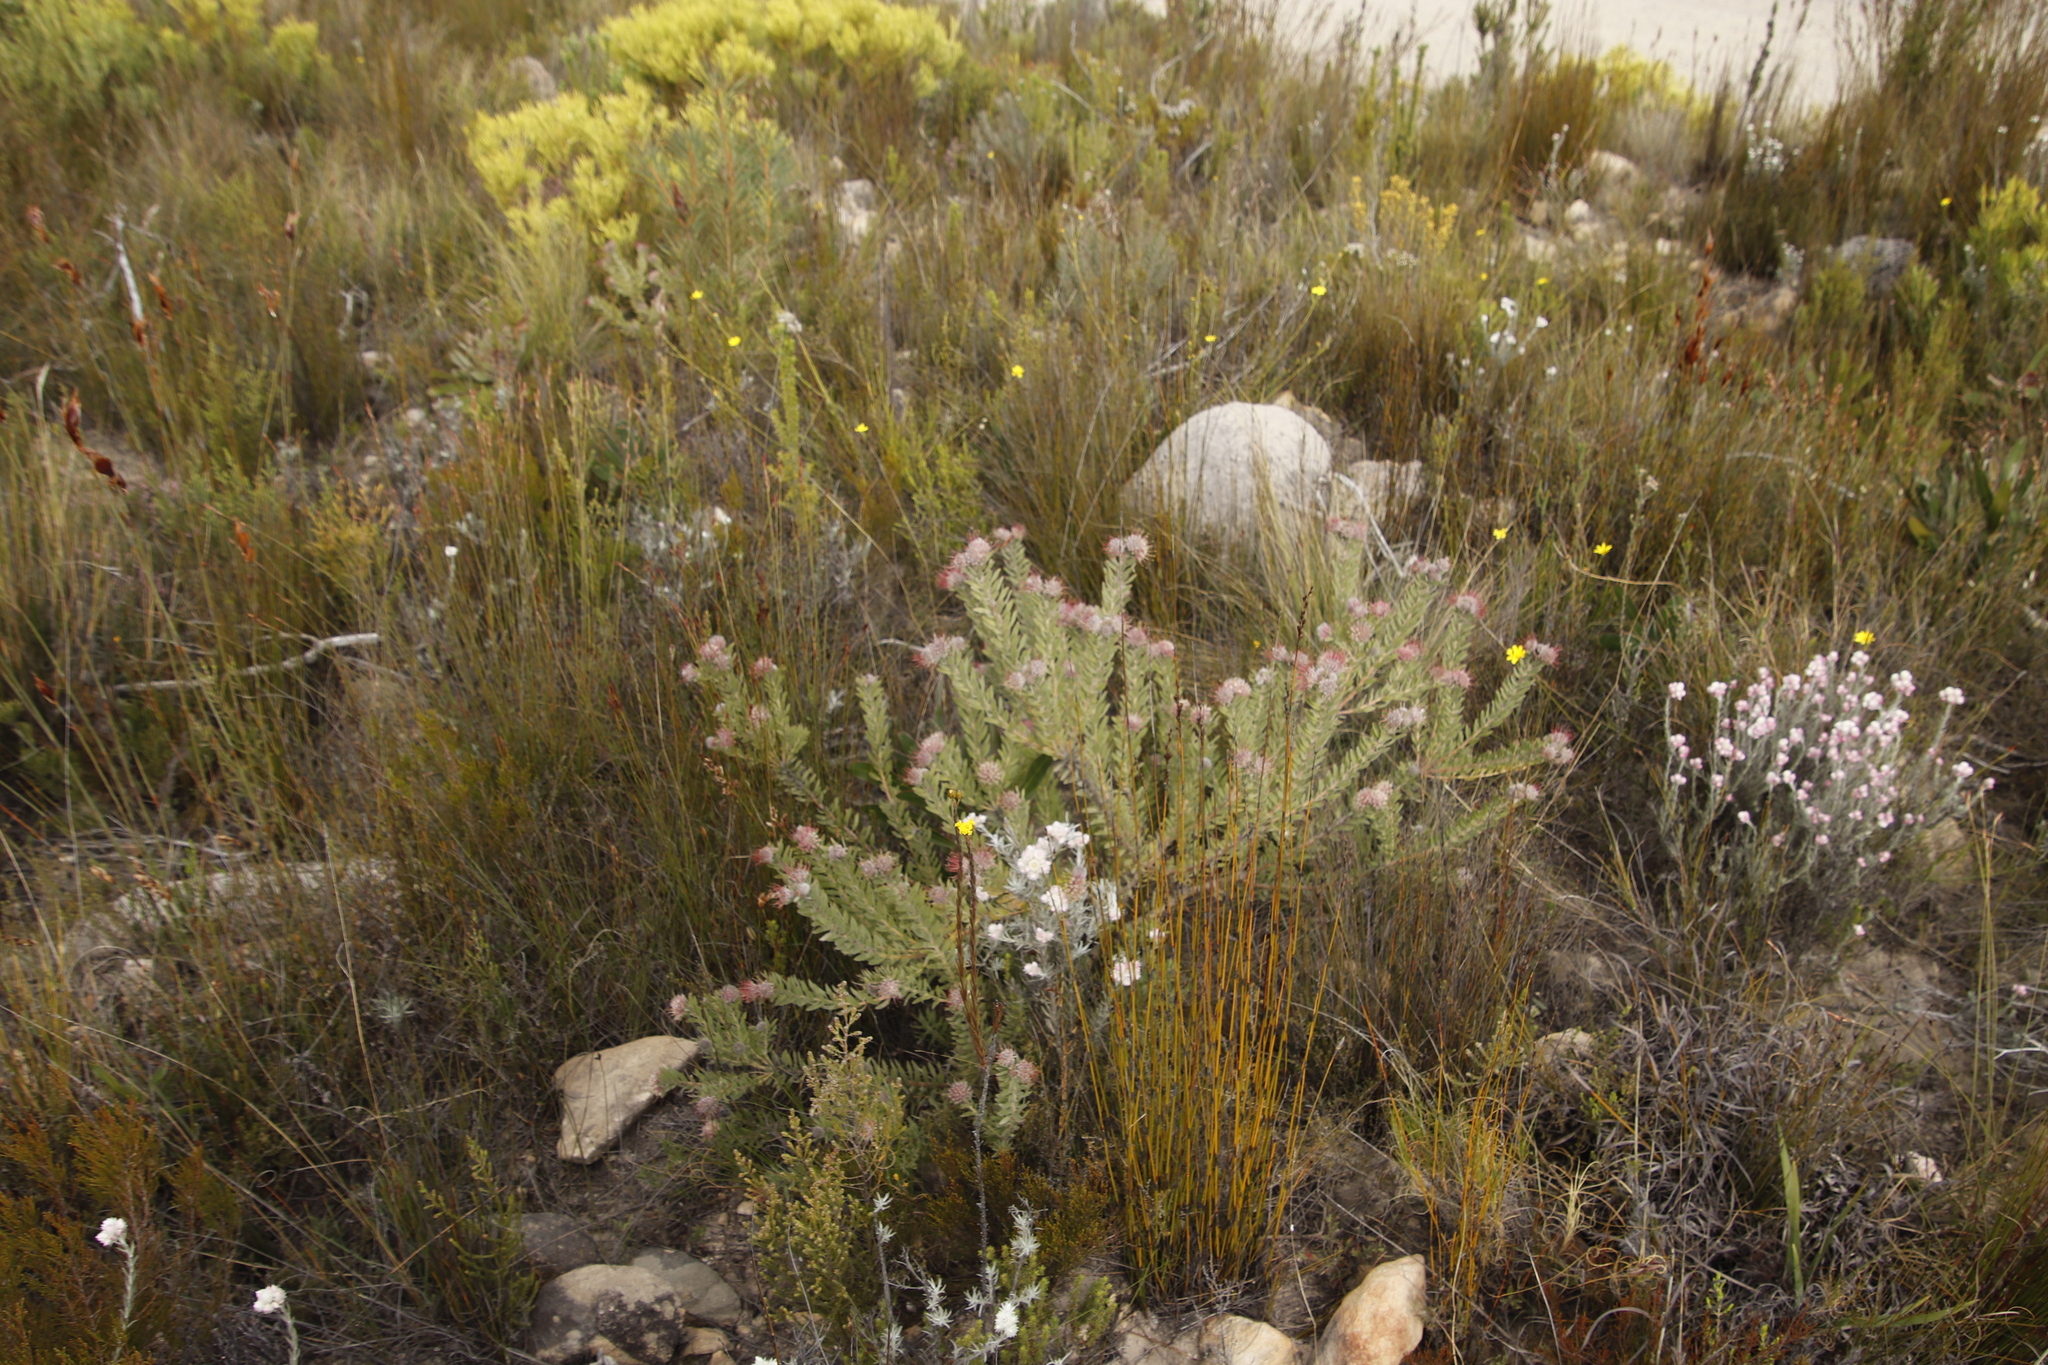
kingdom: Plantae
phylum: Tracheophyta
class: Magnoliopsida
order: Proteales
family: Proteaceae
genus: Leucospermum
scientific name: Leucospermum wittebergense
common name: Swartberg pincushion
